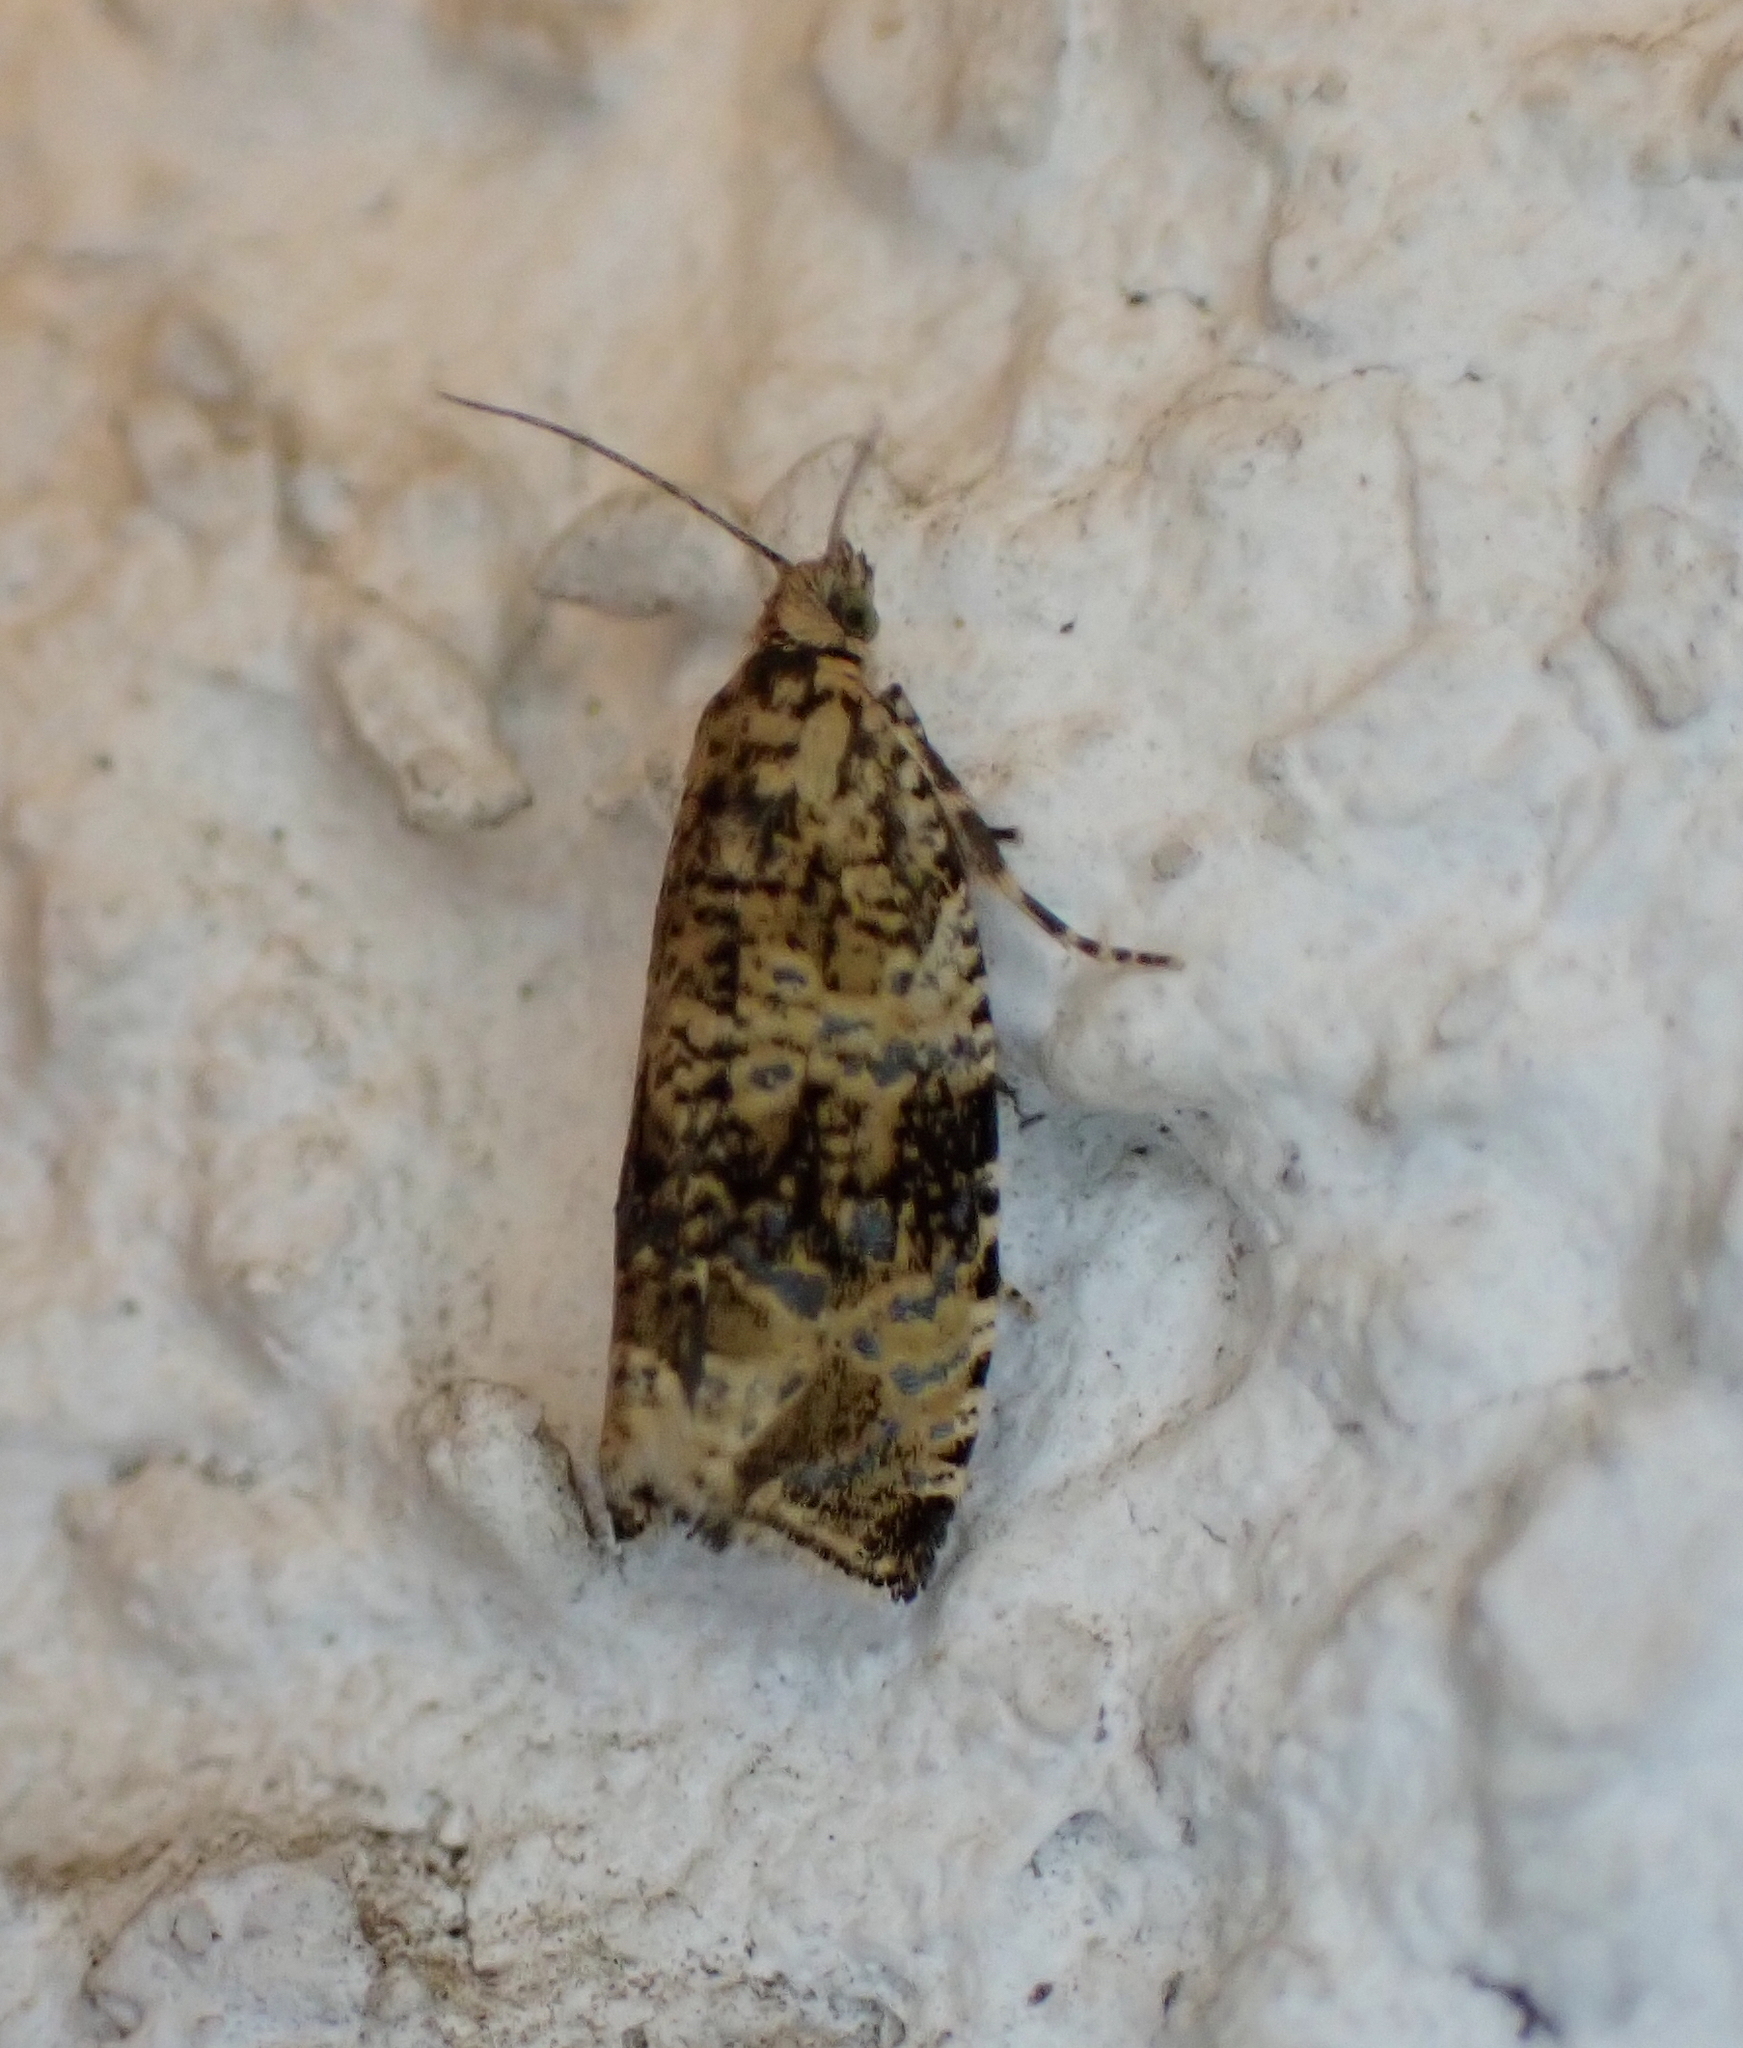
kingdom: Animalia
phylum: Arthropoda
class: Insecta
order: Lepidoptera
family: Tortricidae
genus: Syricoris
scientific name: Syricoris lacunana
